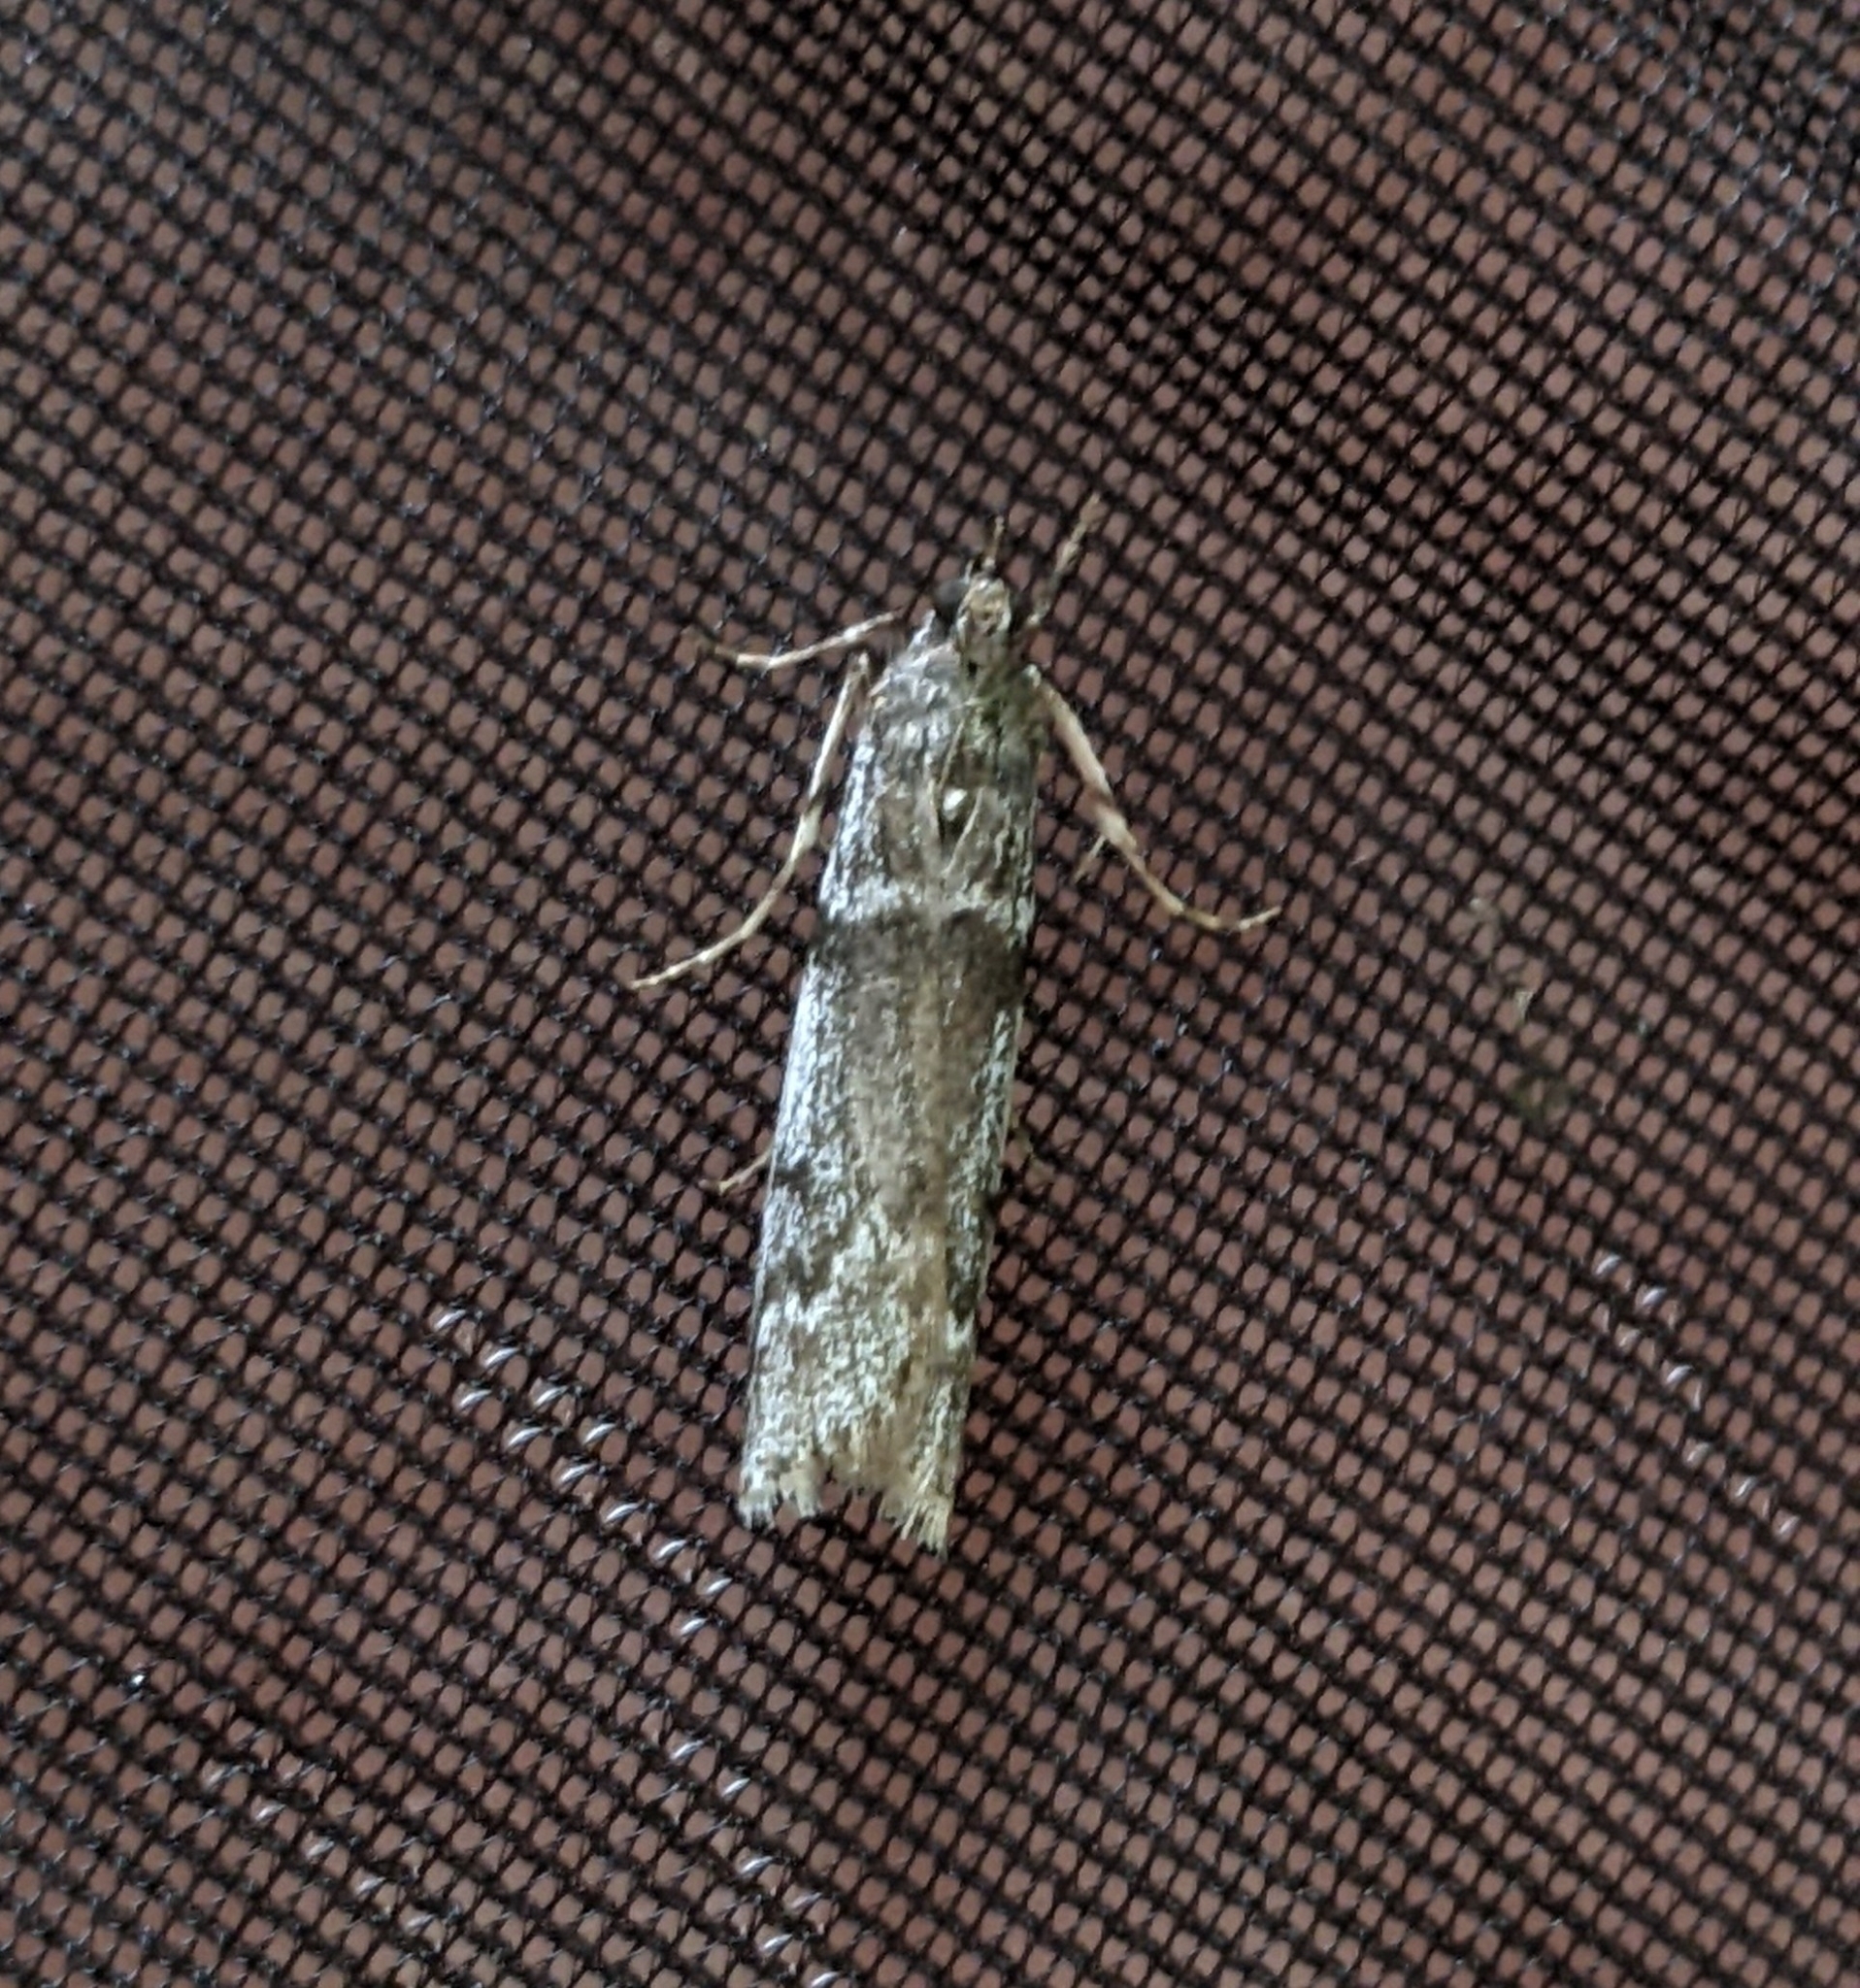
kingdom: Animalia
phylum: Arthropoda
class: Insecta
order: Lepidoptera
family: Pyralidae
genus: Zophodia
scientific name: Zophodia convolutella
